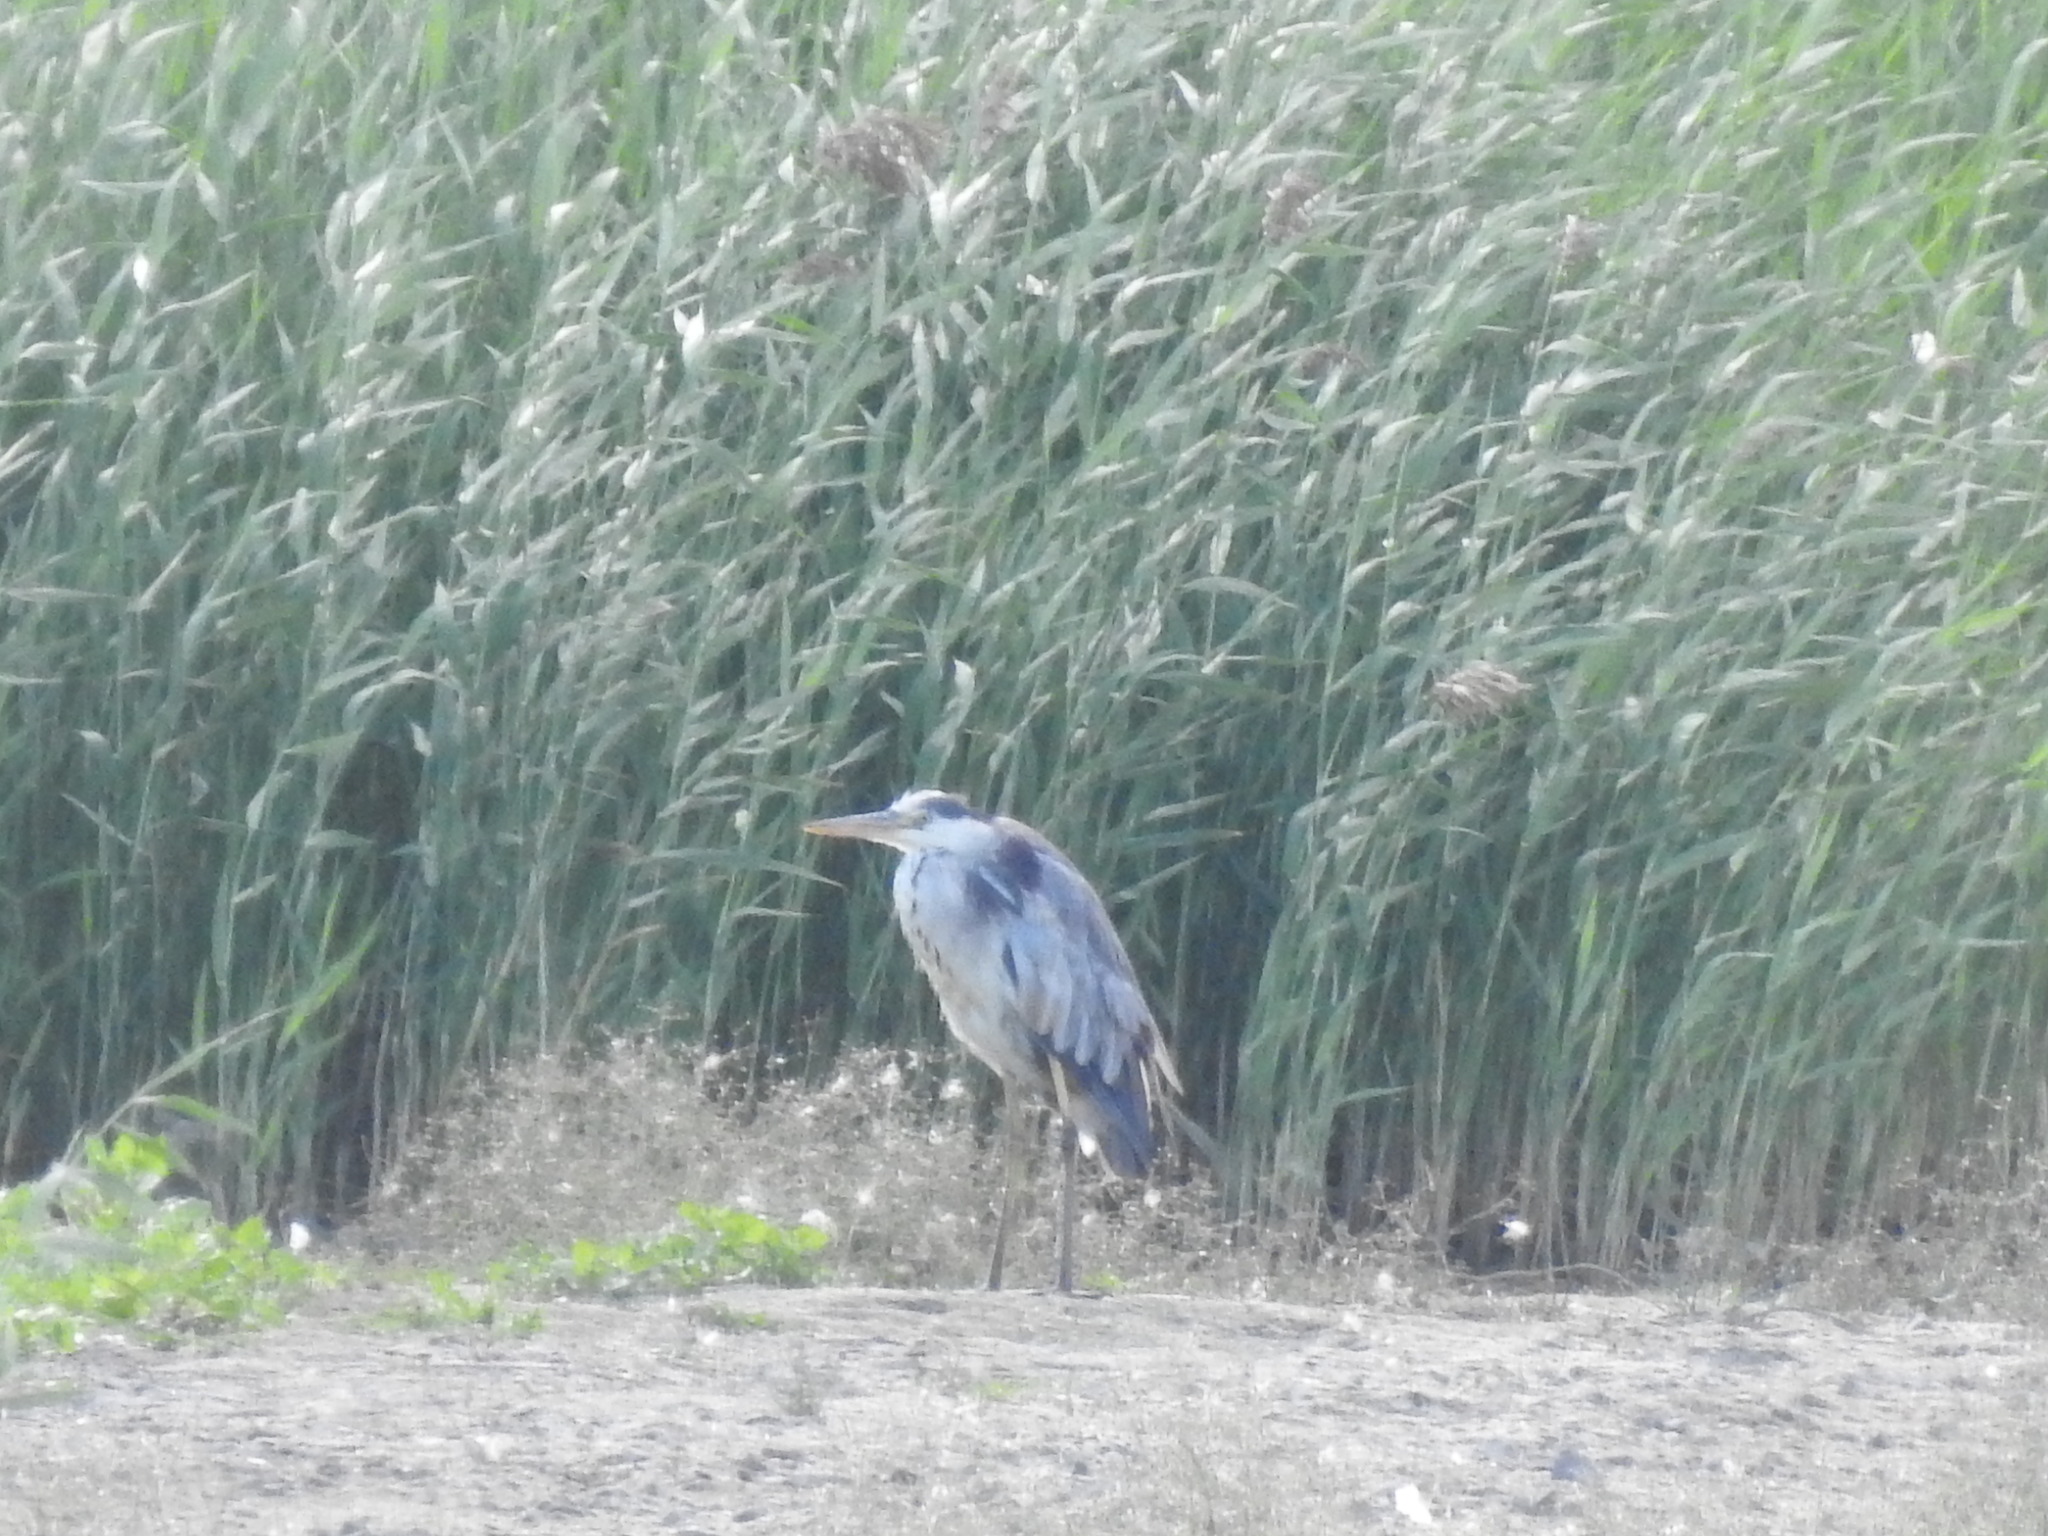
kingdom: Animalia
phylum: Chordata
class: Aves
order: Pelecaniformes
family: Ardeidae
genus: Ardea
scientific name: Ardea cinerea
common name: Grey heron
